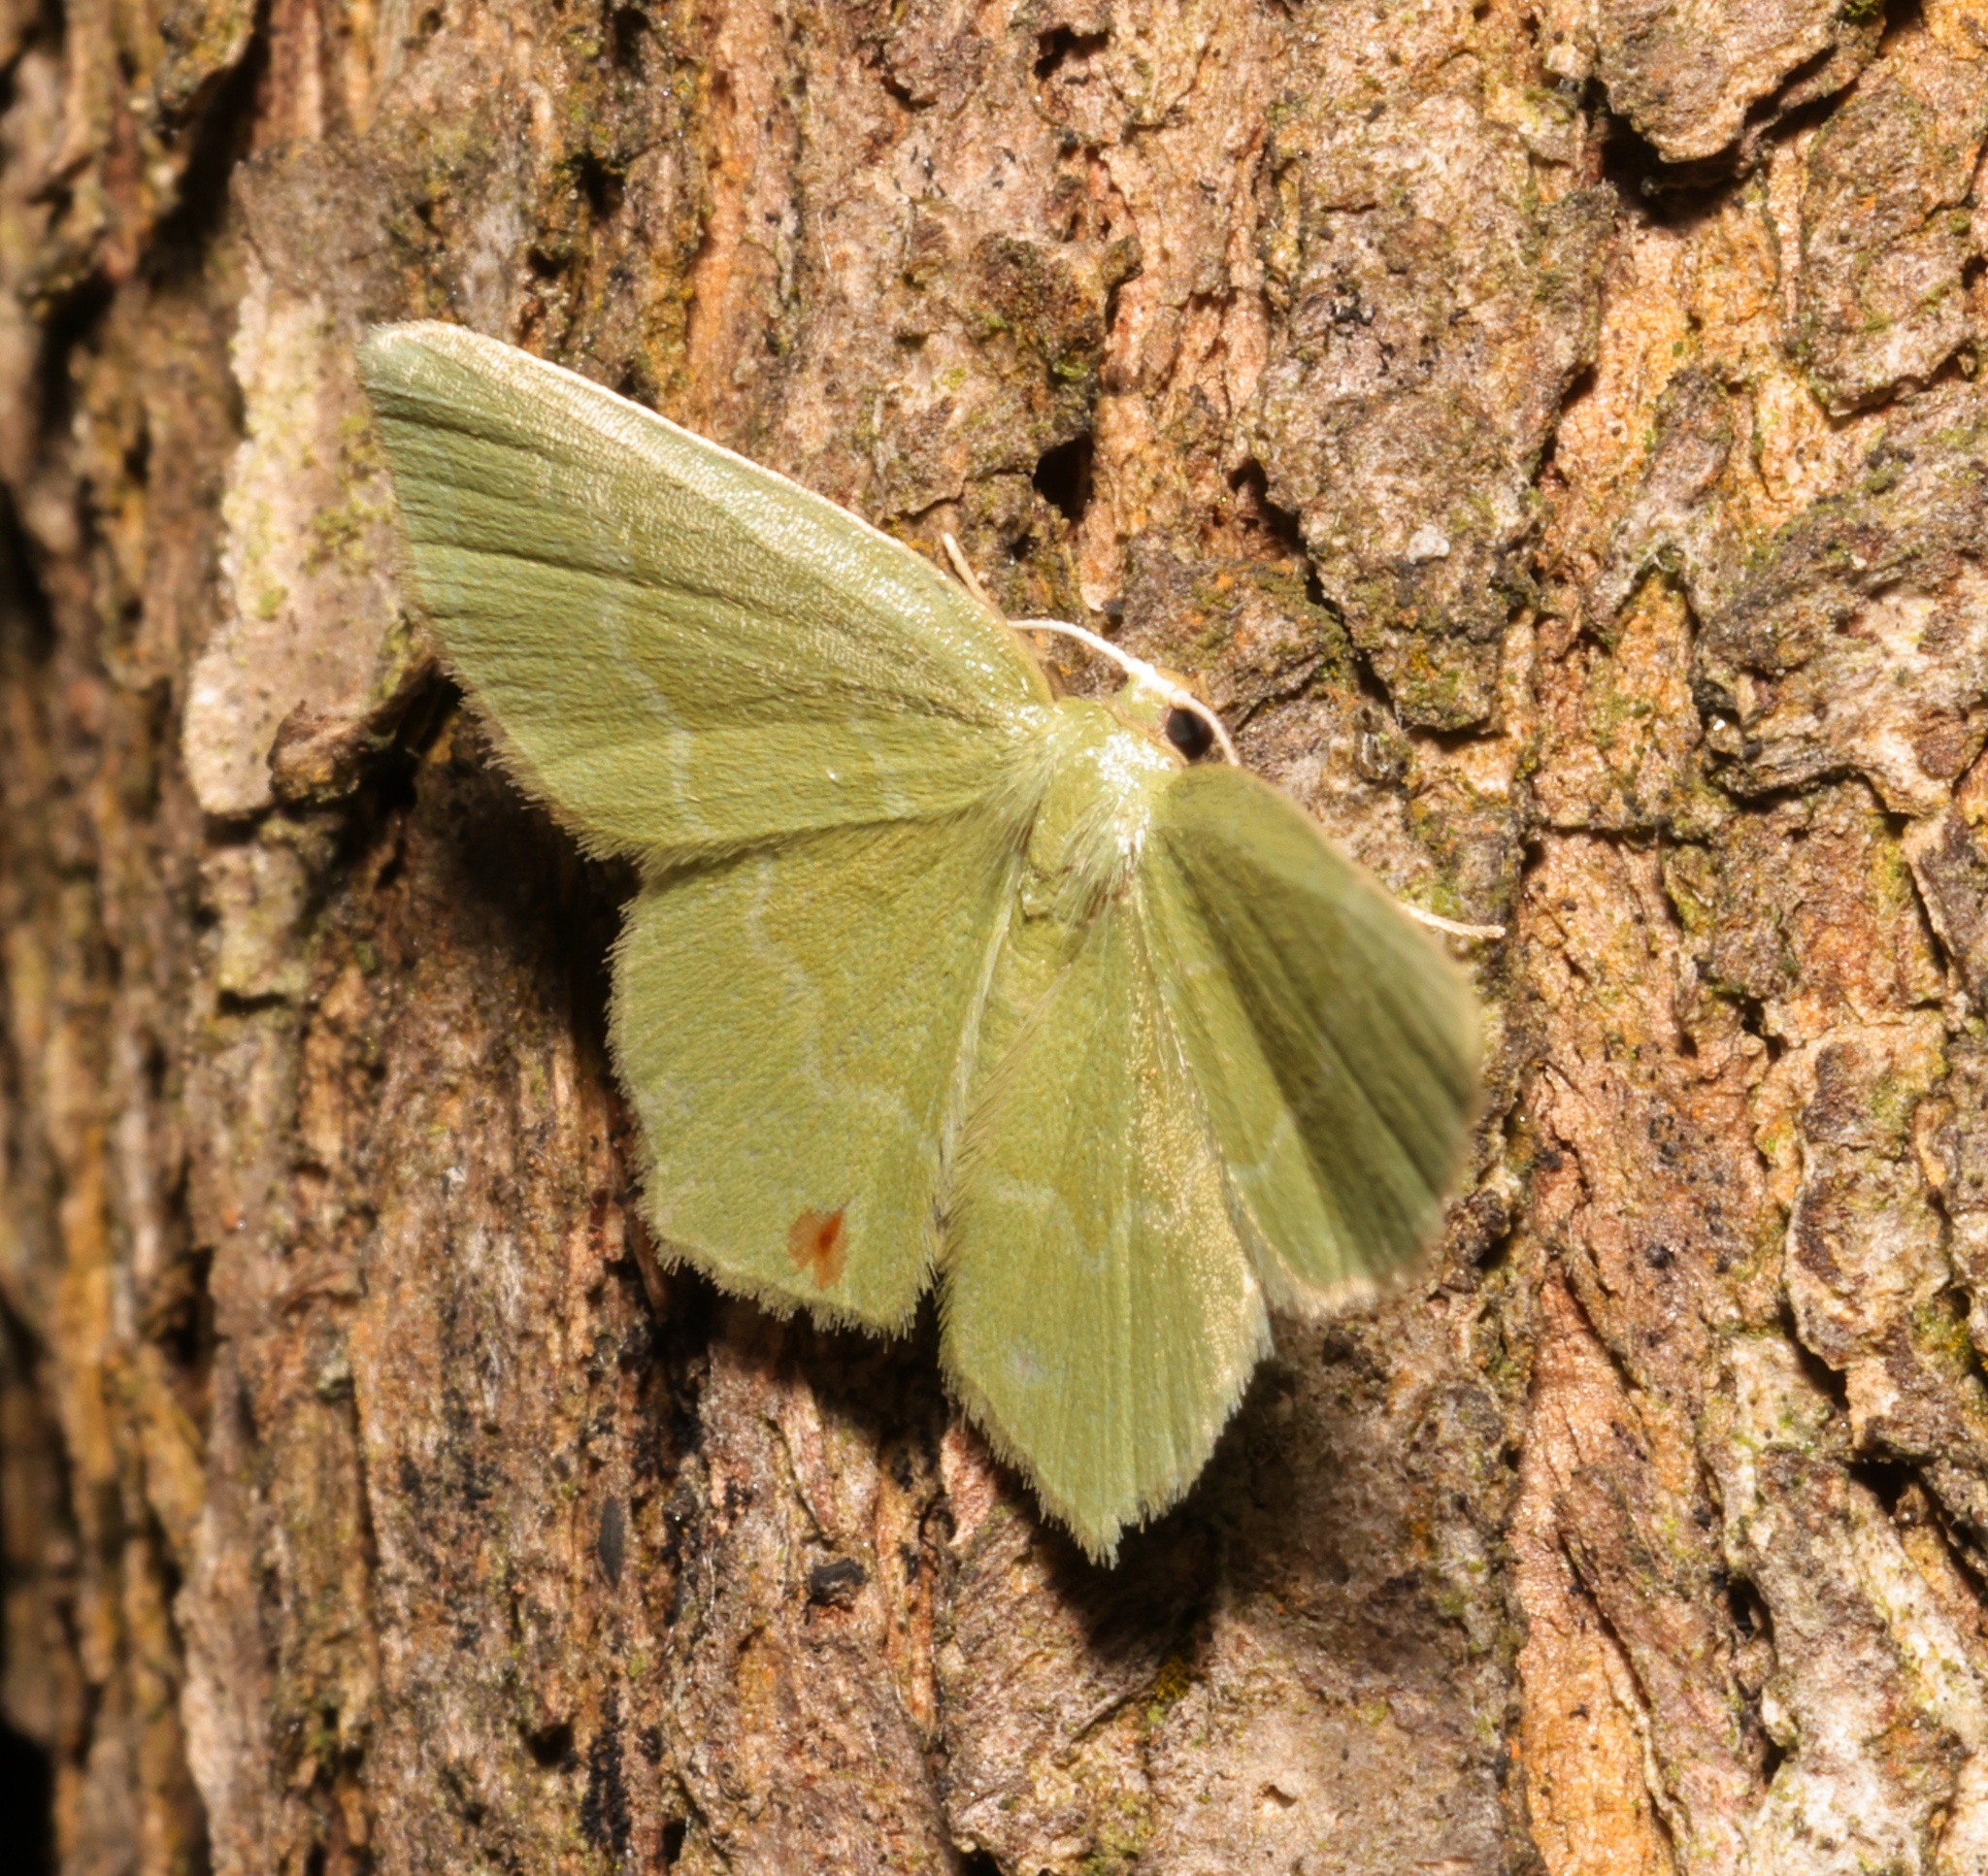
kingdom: Animalia
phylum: Arthropoda
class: Insecta
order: Lepidoptera
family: Geometridae
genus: Idiochlora
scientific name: Idiochlora minuscula
